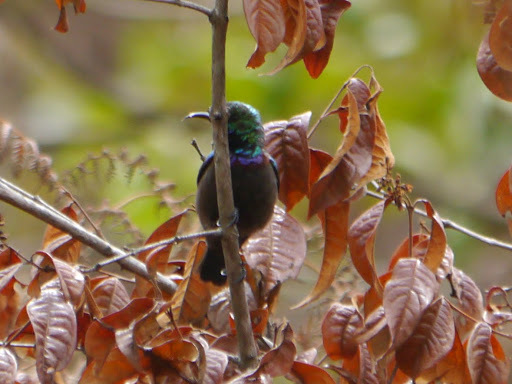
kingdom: Animalia
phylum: Chordata
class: Aves
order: Passeriformes
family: Nectariniidae
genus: Cinnyris
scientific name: Cinnyris bouvieri
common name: Orange-tufted sunbird
